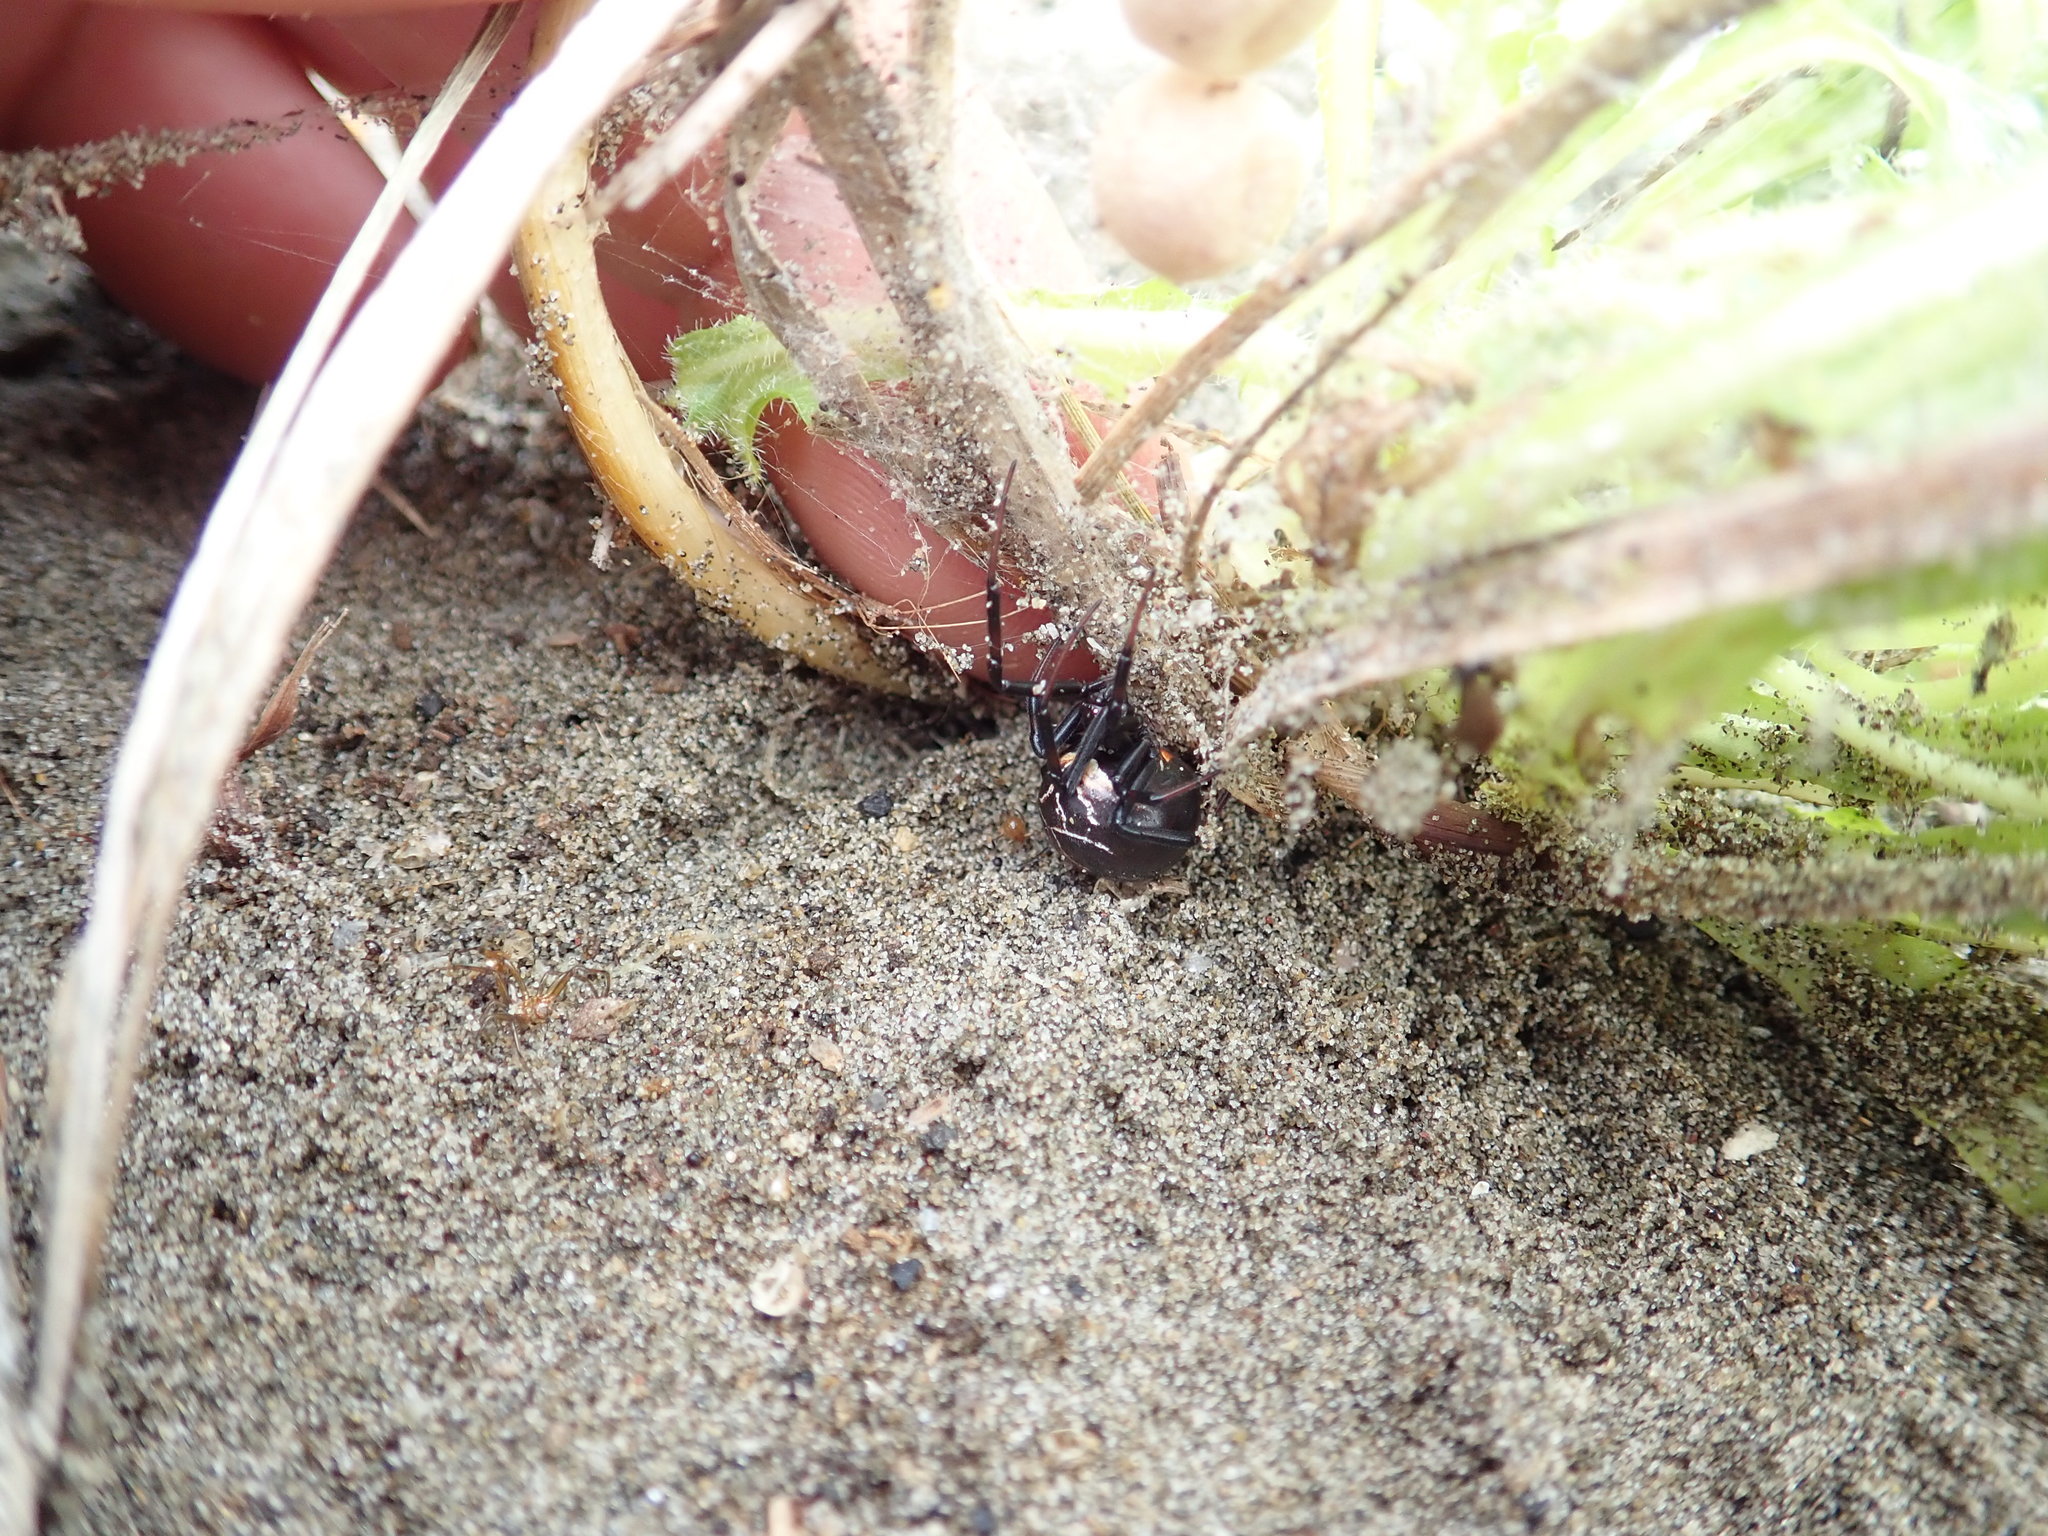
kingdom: Animalia
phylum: Arthropoda
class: Arachnida
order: Araneae
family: Theridiidae
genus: Latrodectus
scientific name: Latrodectus katipo
